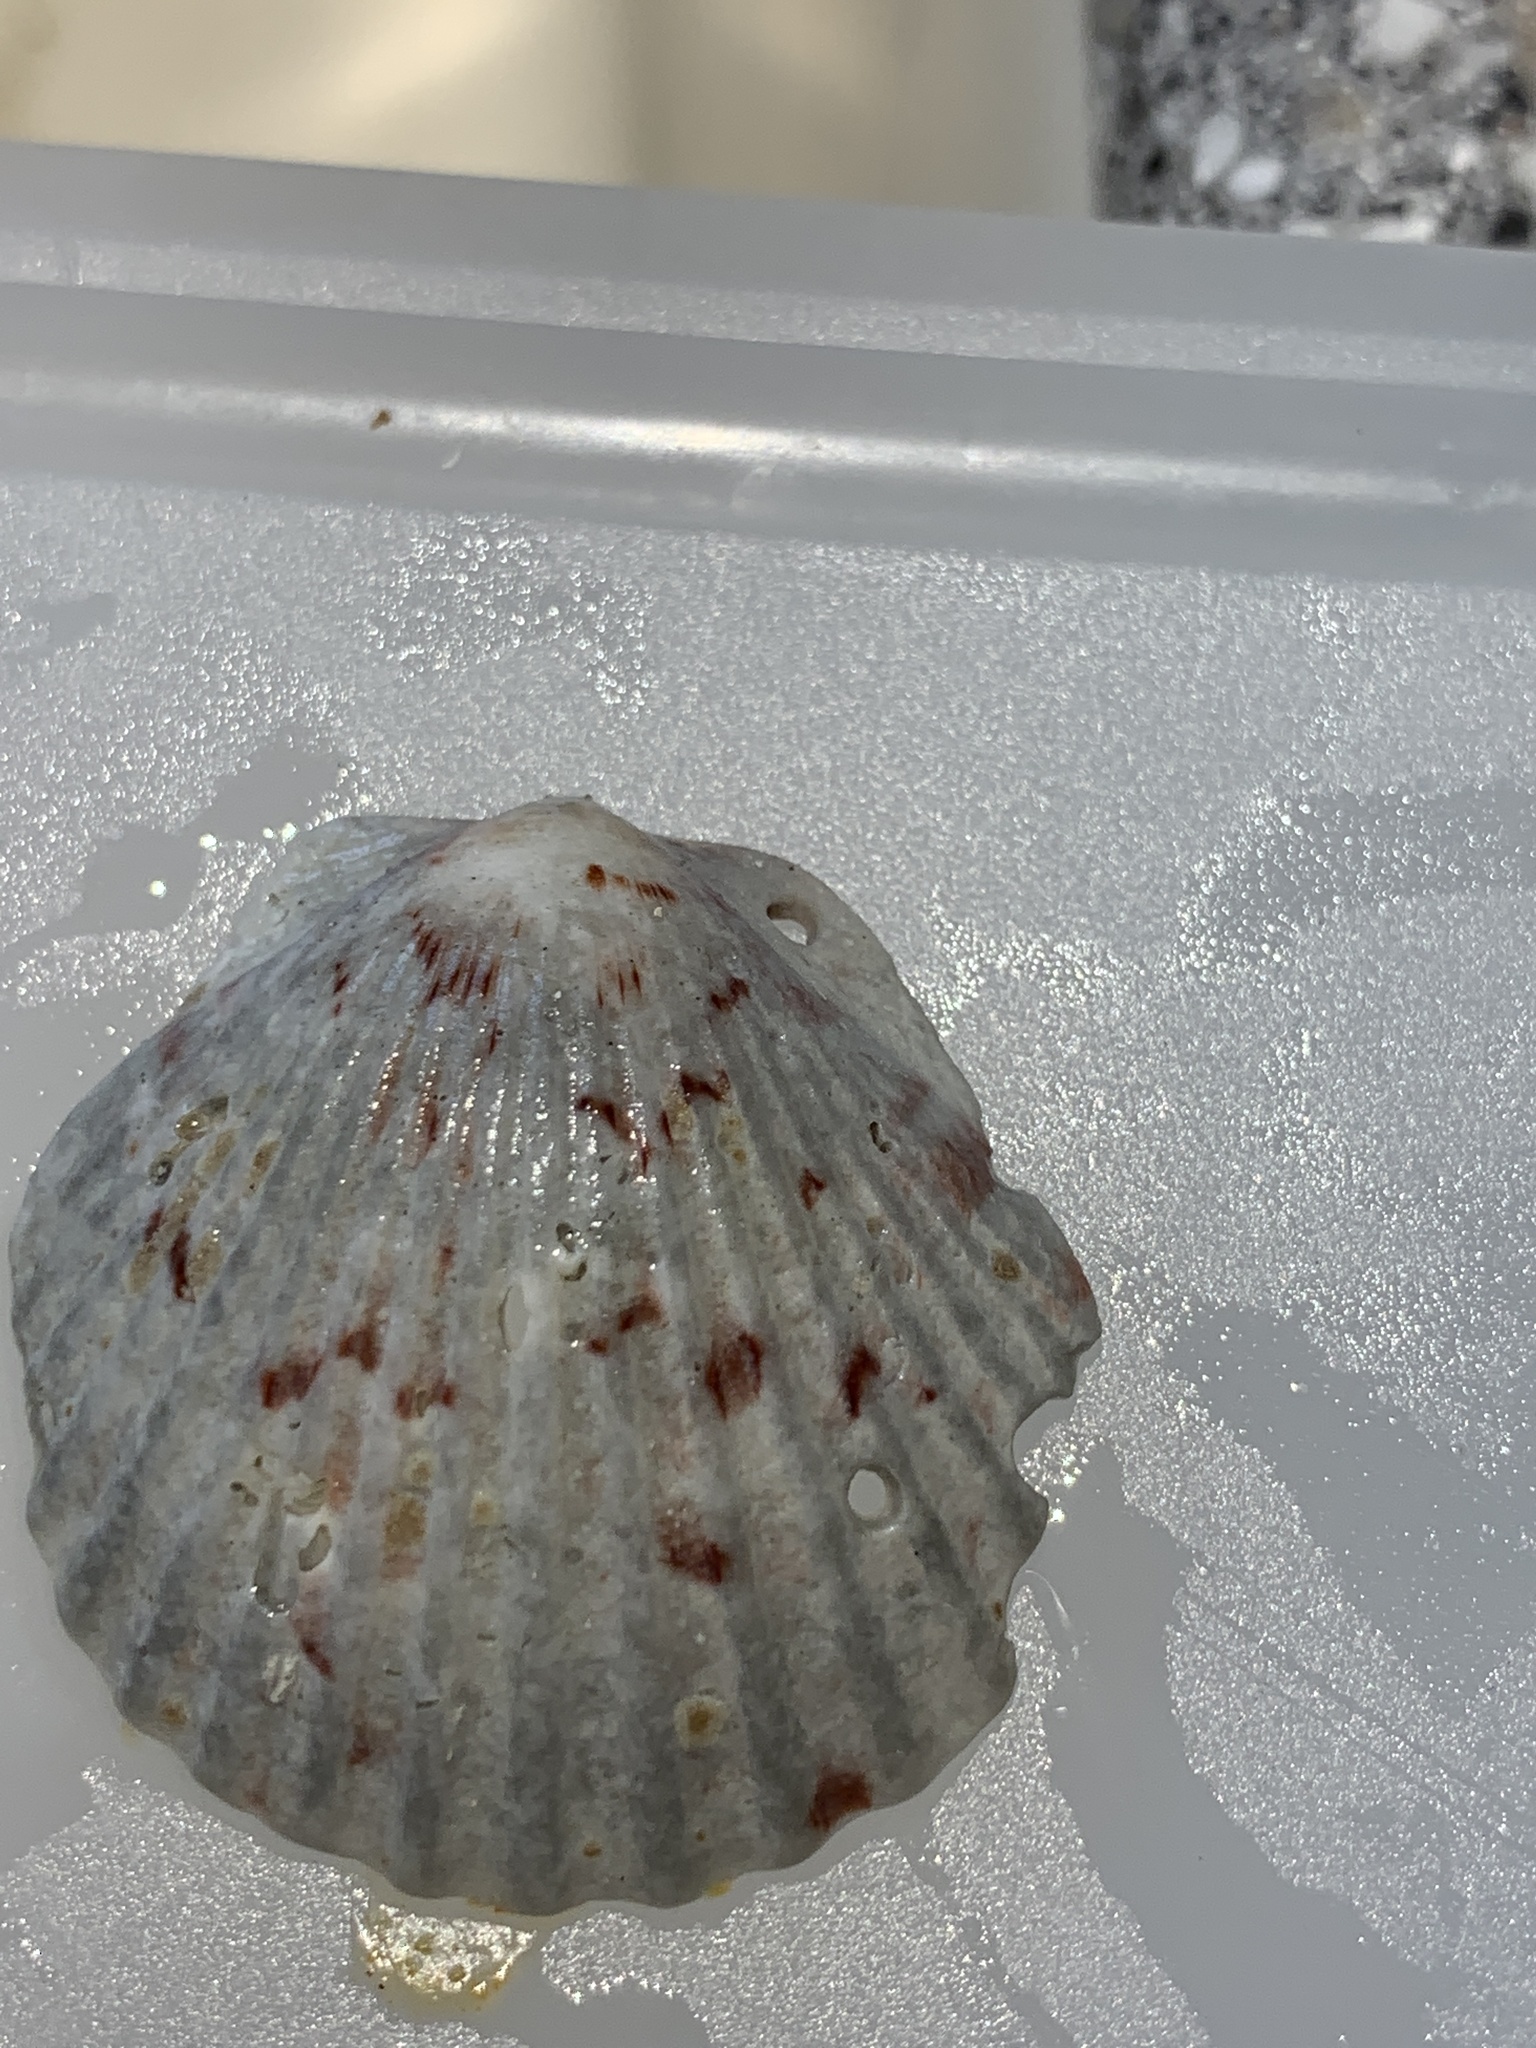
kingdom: Animalia
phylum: Mollusca
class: Bivalvia
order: Pectinida
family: Pectinidae
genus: Argopecten
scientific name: Argopecten gibbus
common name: Atlantic calico scallop
